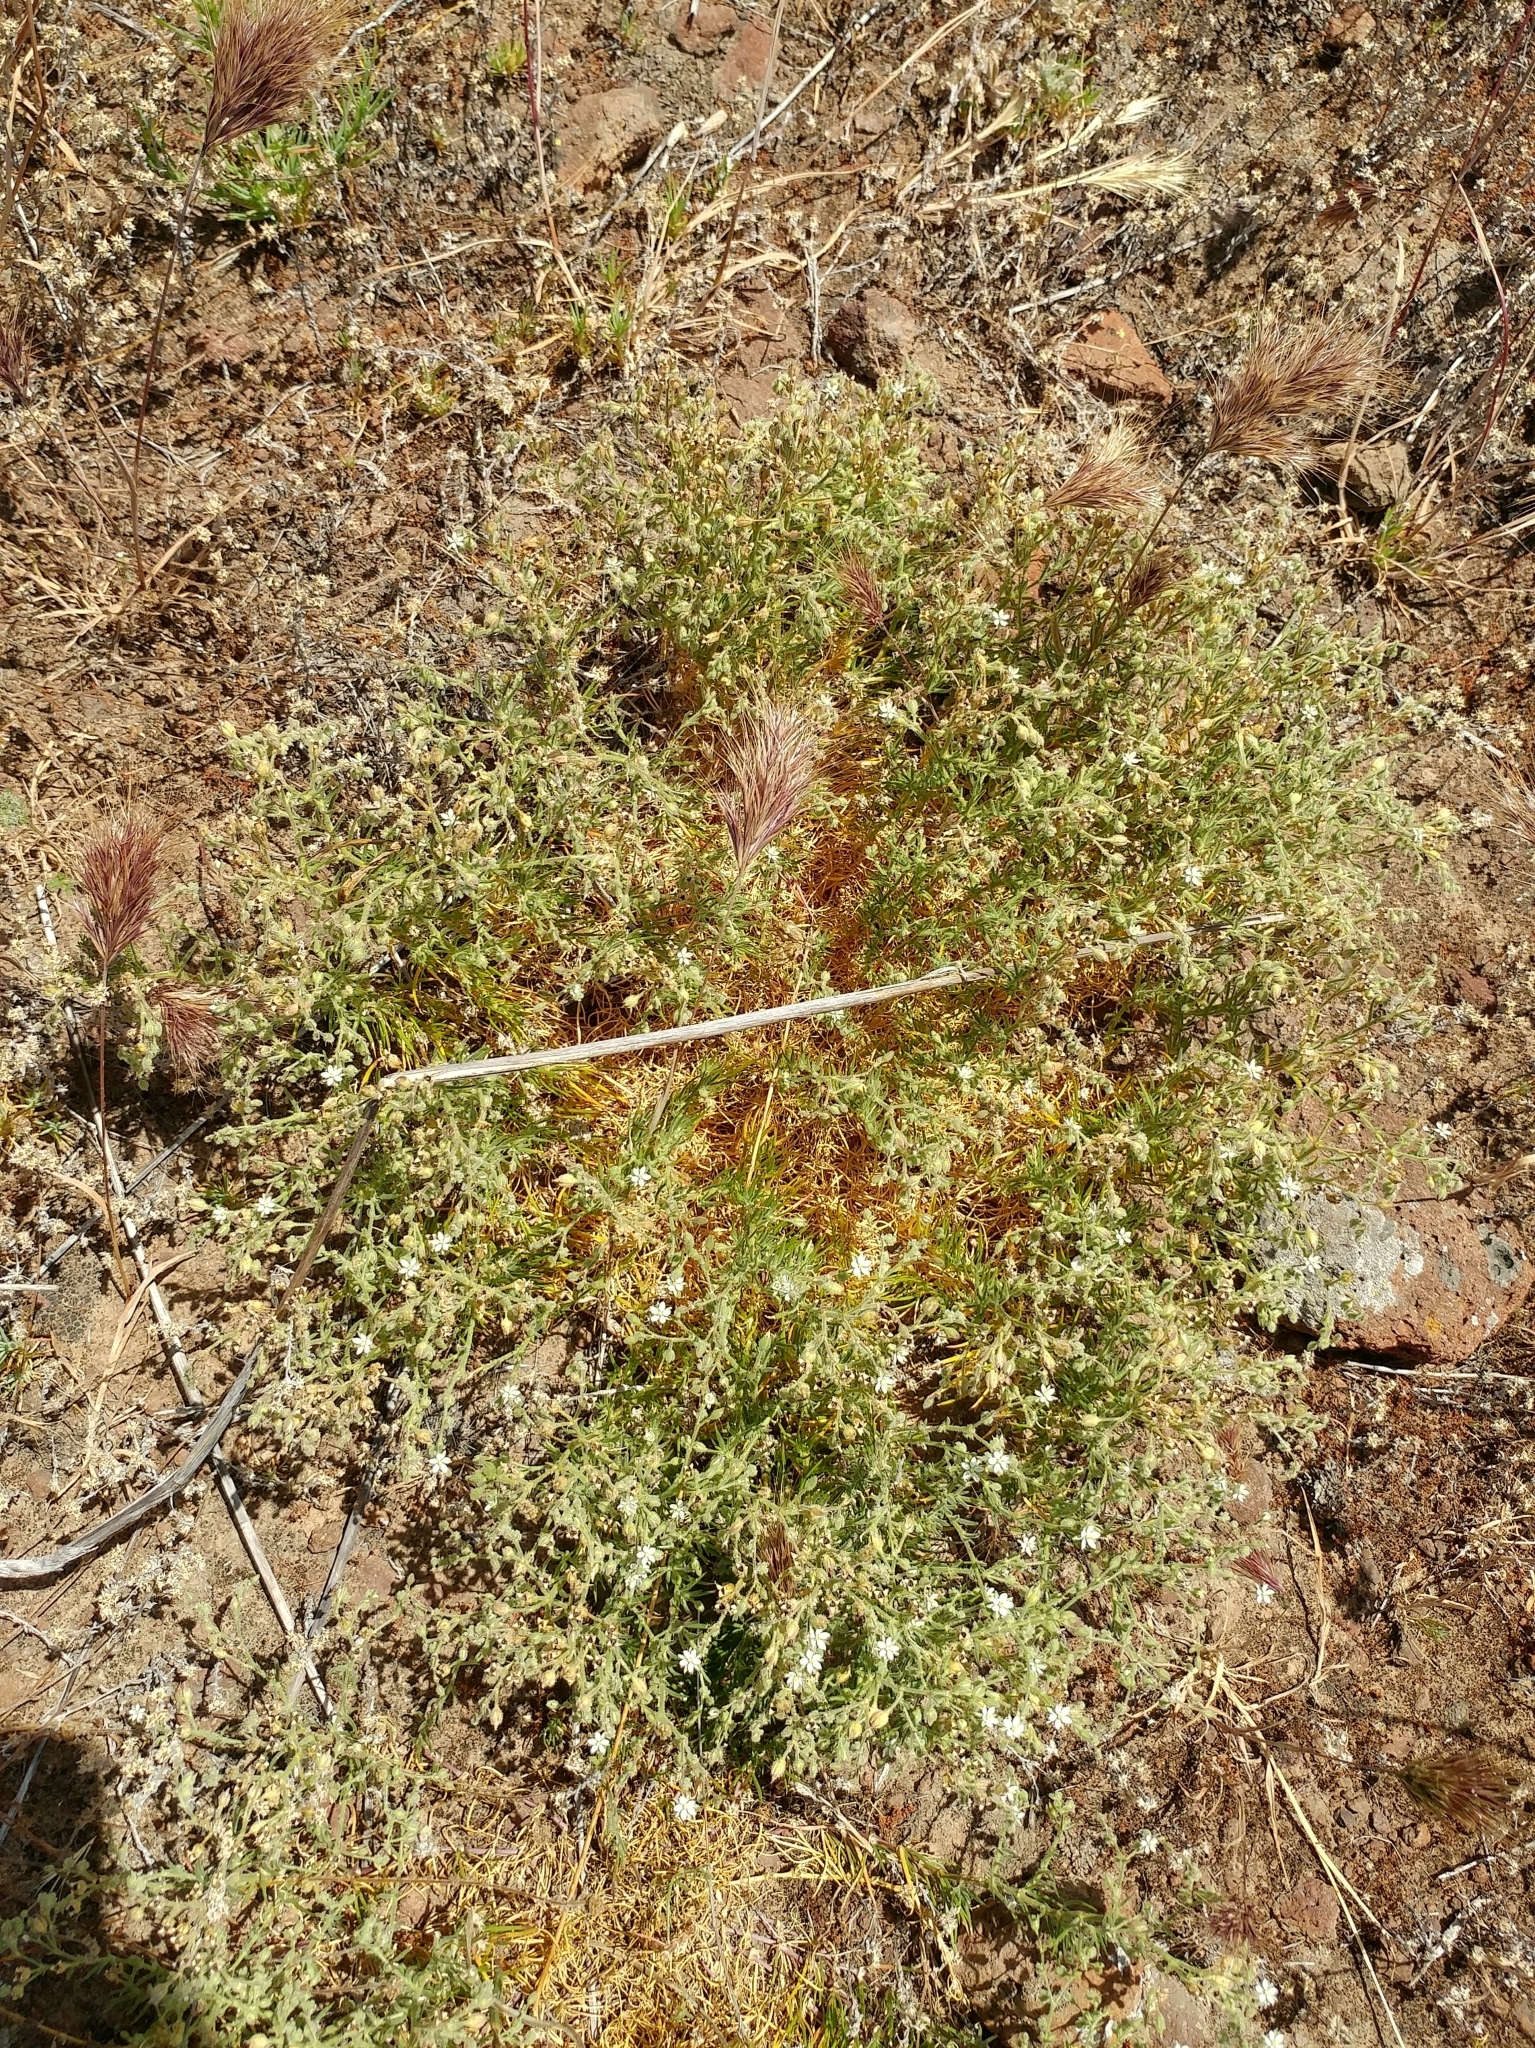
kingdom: Plantae
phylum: Tracheophyta
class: Magnoliopsida
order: Caryophyllales
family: Caryophyllaceae
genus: Spergularia
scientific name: Spergularia villosa
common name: Hairy sandspurry
